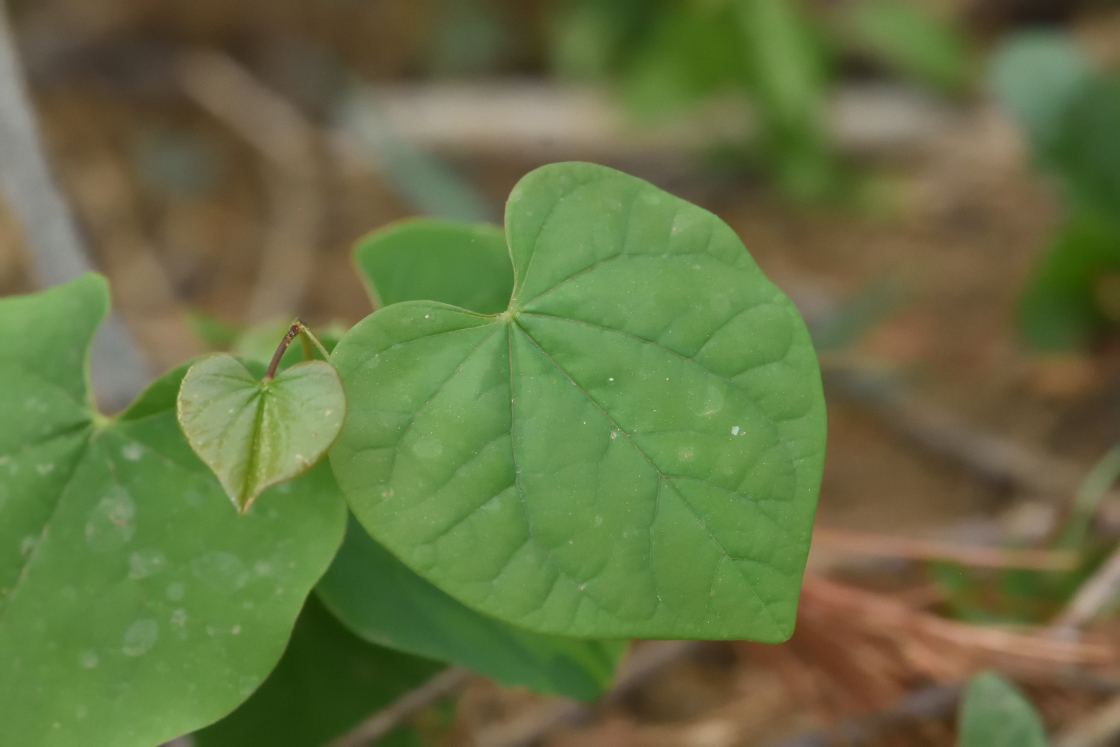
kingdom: Plantae
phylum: Tracheophyta
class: Magnoliopsida
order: Fabales
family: Fabaceae
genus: Cercis
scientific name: Cercis canadensis
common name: Eastern redbud
